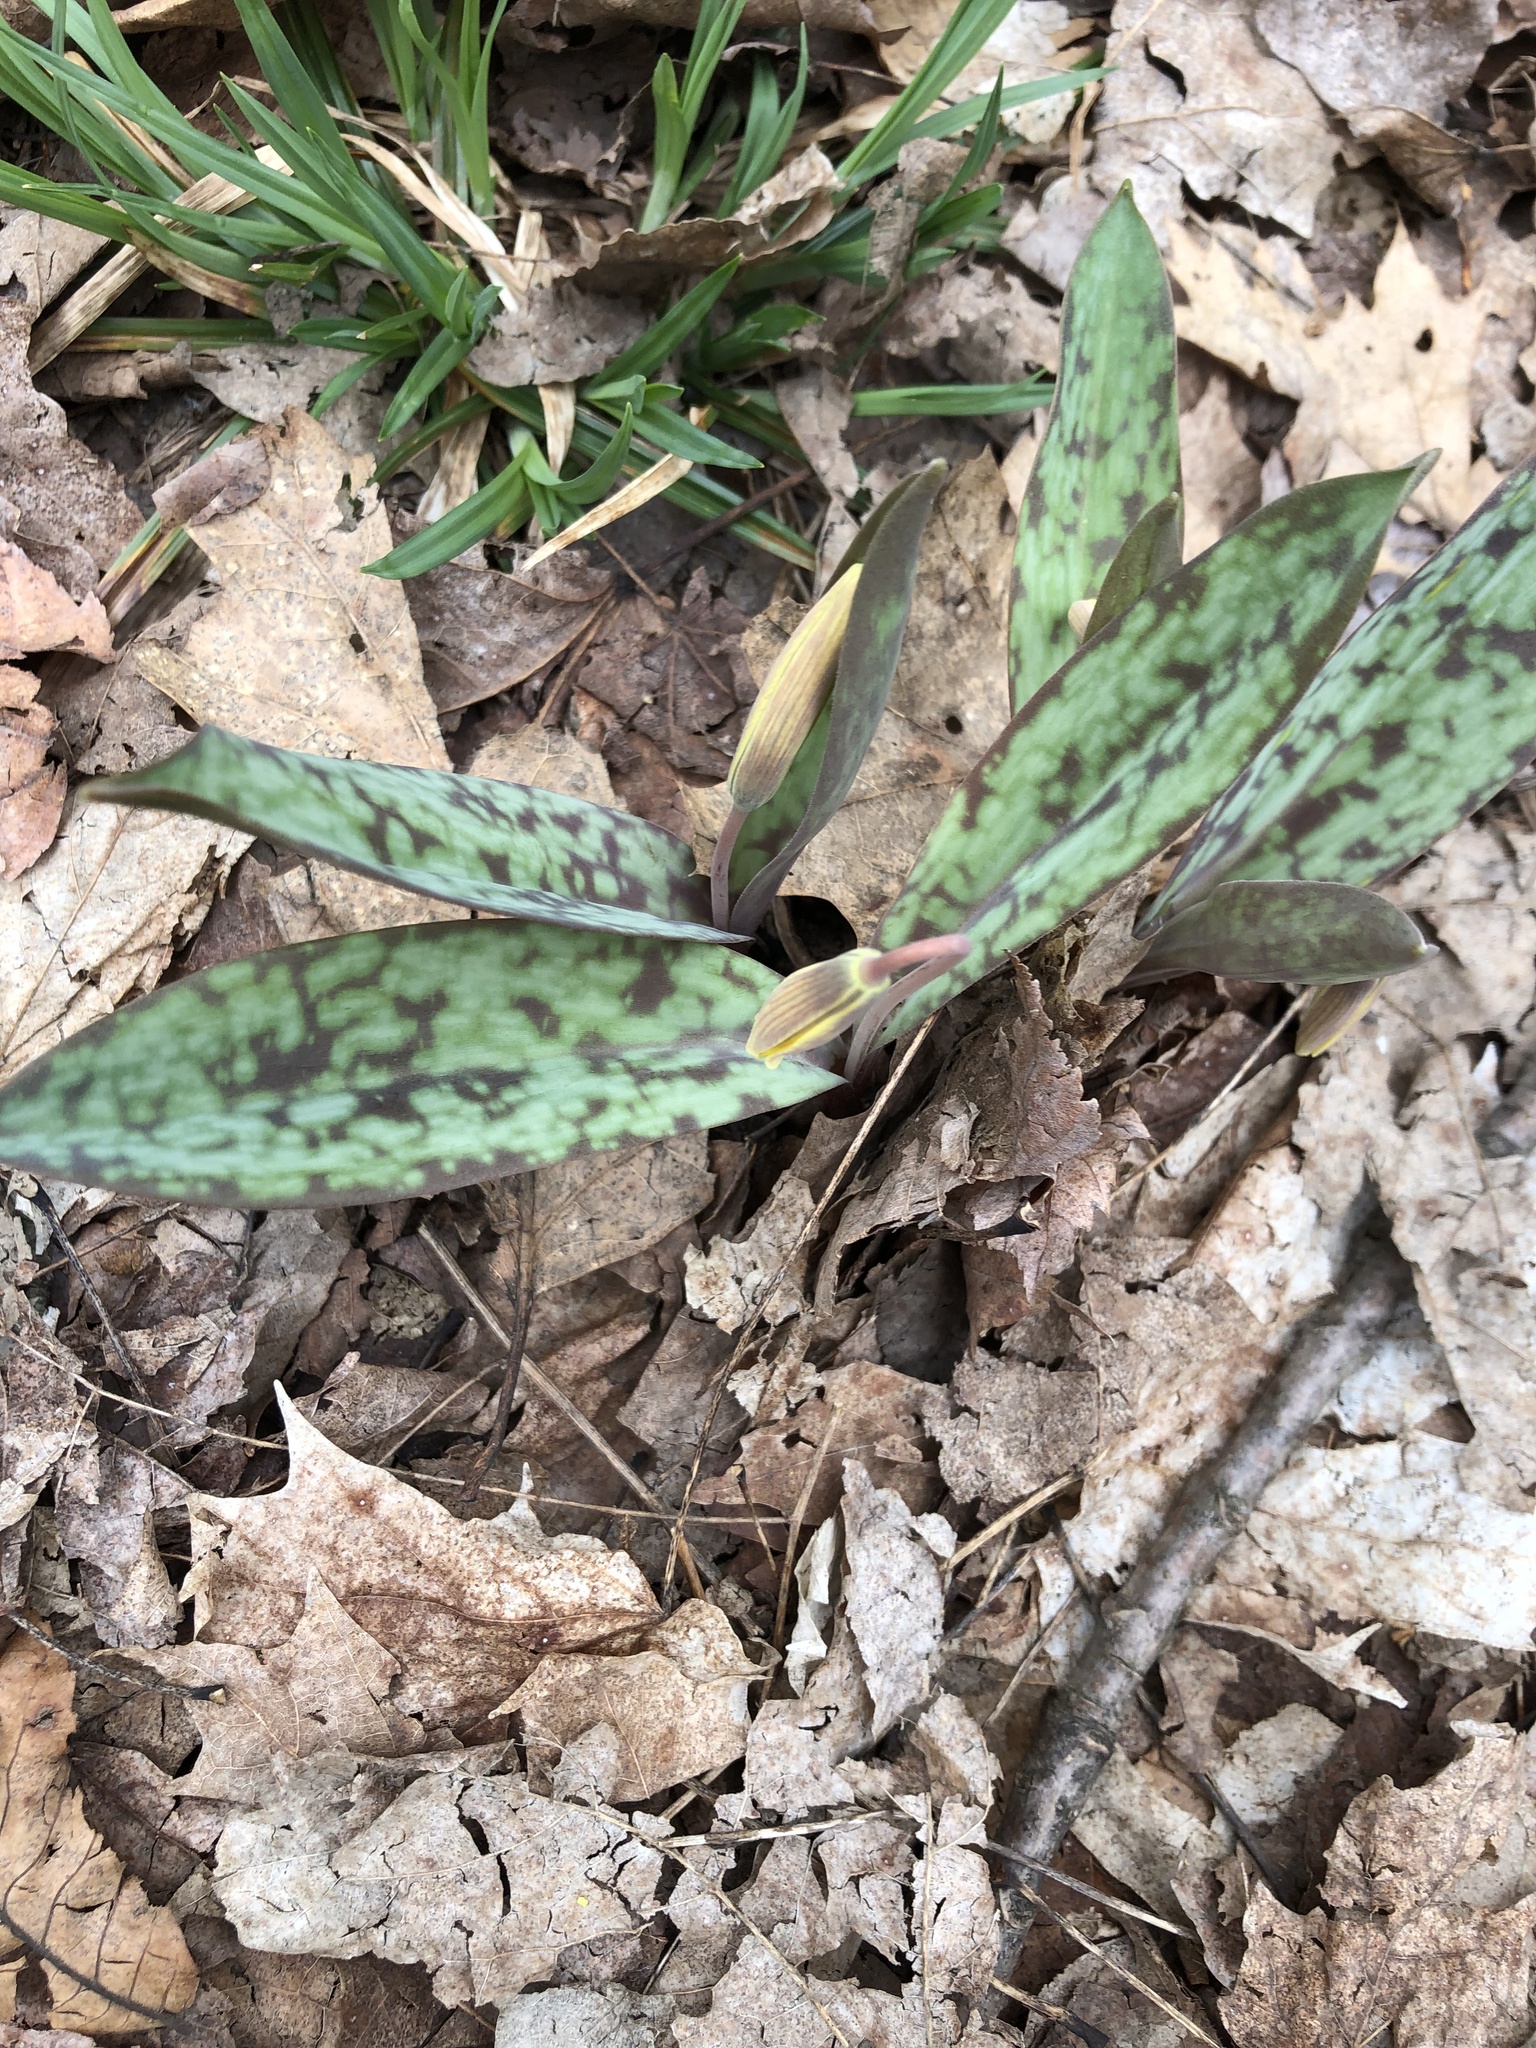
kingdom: Plantae
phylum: Tracheophyta
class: Liliopsida
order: Liliales
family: Liliaceae
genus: Erythronium
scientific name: Erythronium americanum
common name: Yellow adder's-tongue
